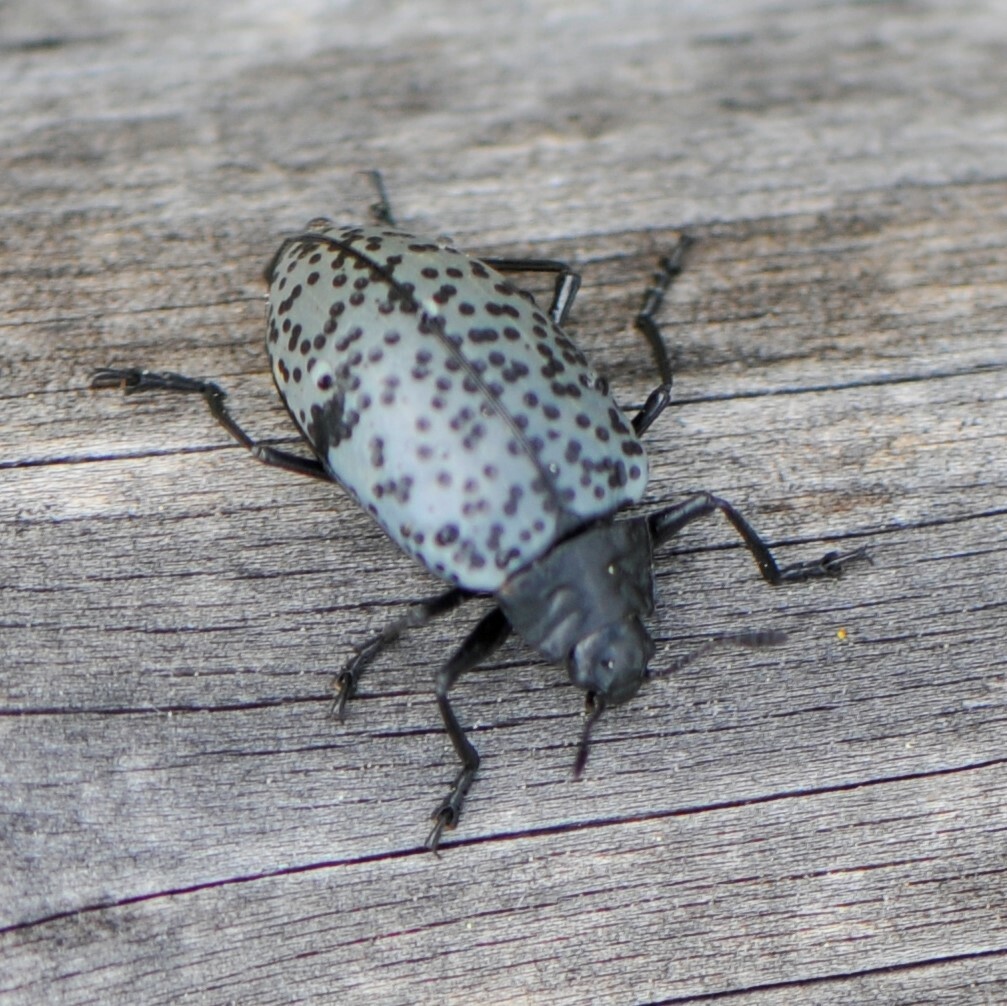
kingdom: Animalia
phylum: Arthropoda
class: Insecta
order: Coleoptera
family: Erotylidae
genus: Gibbifer
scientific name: Gibbifer californicus
